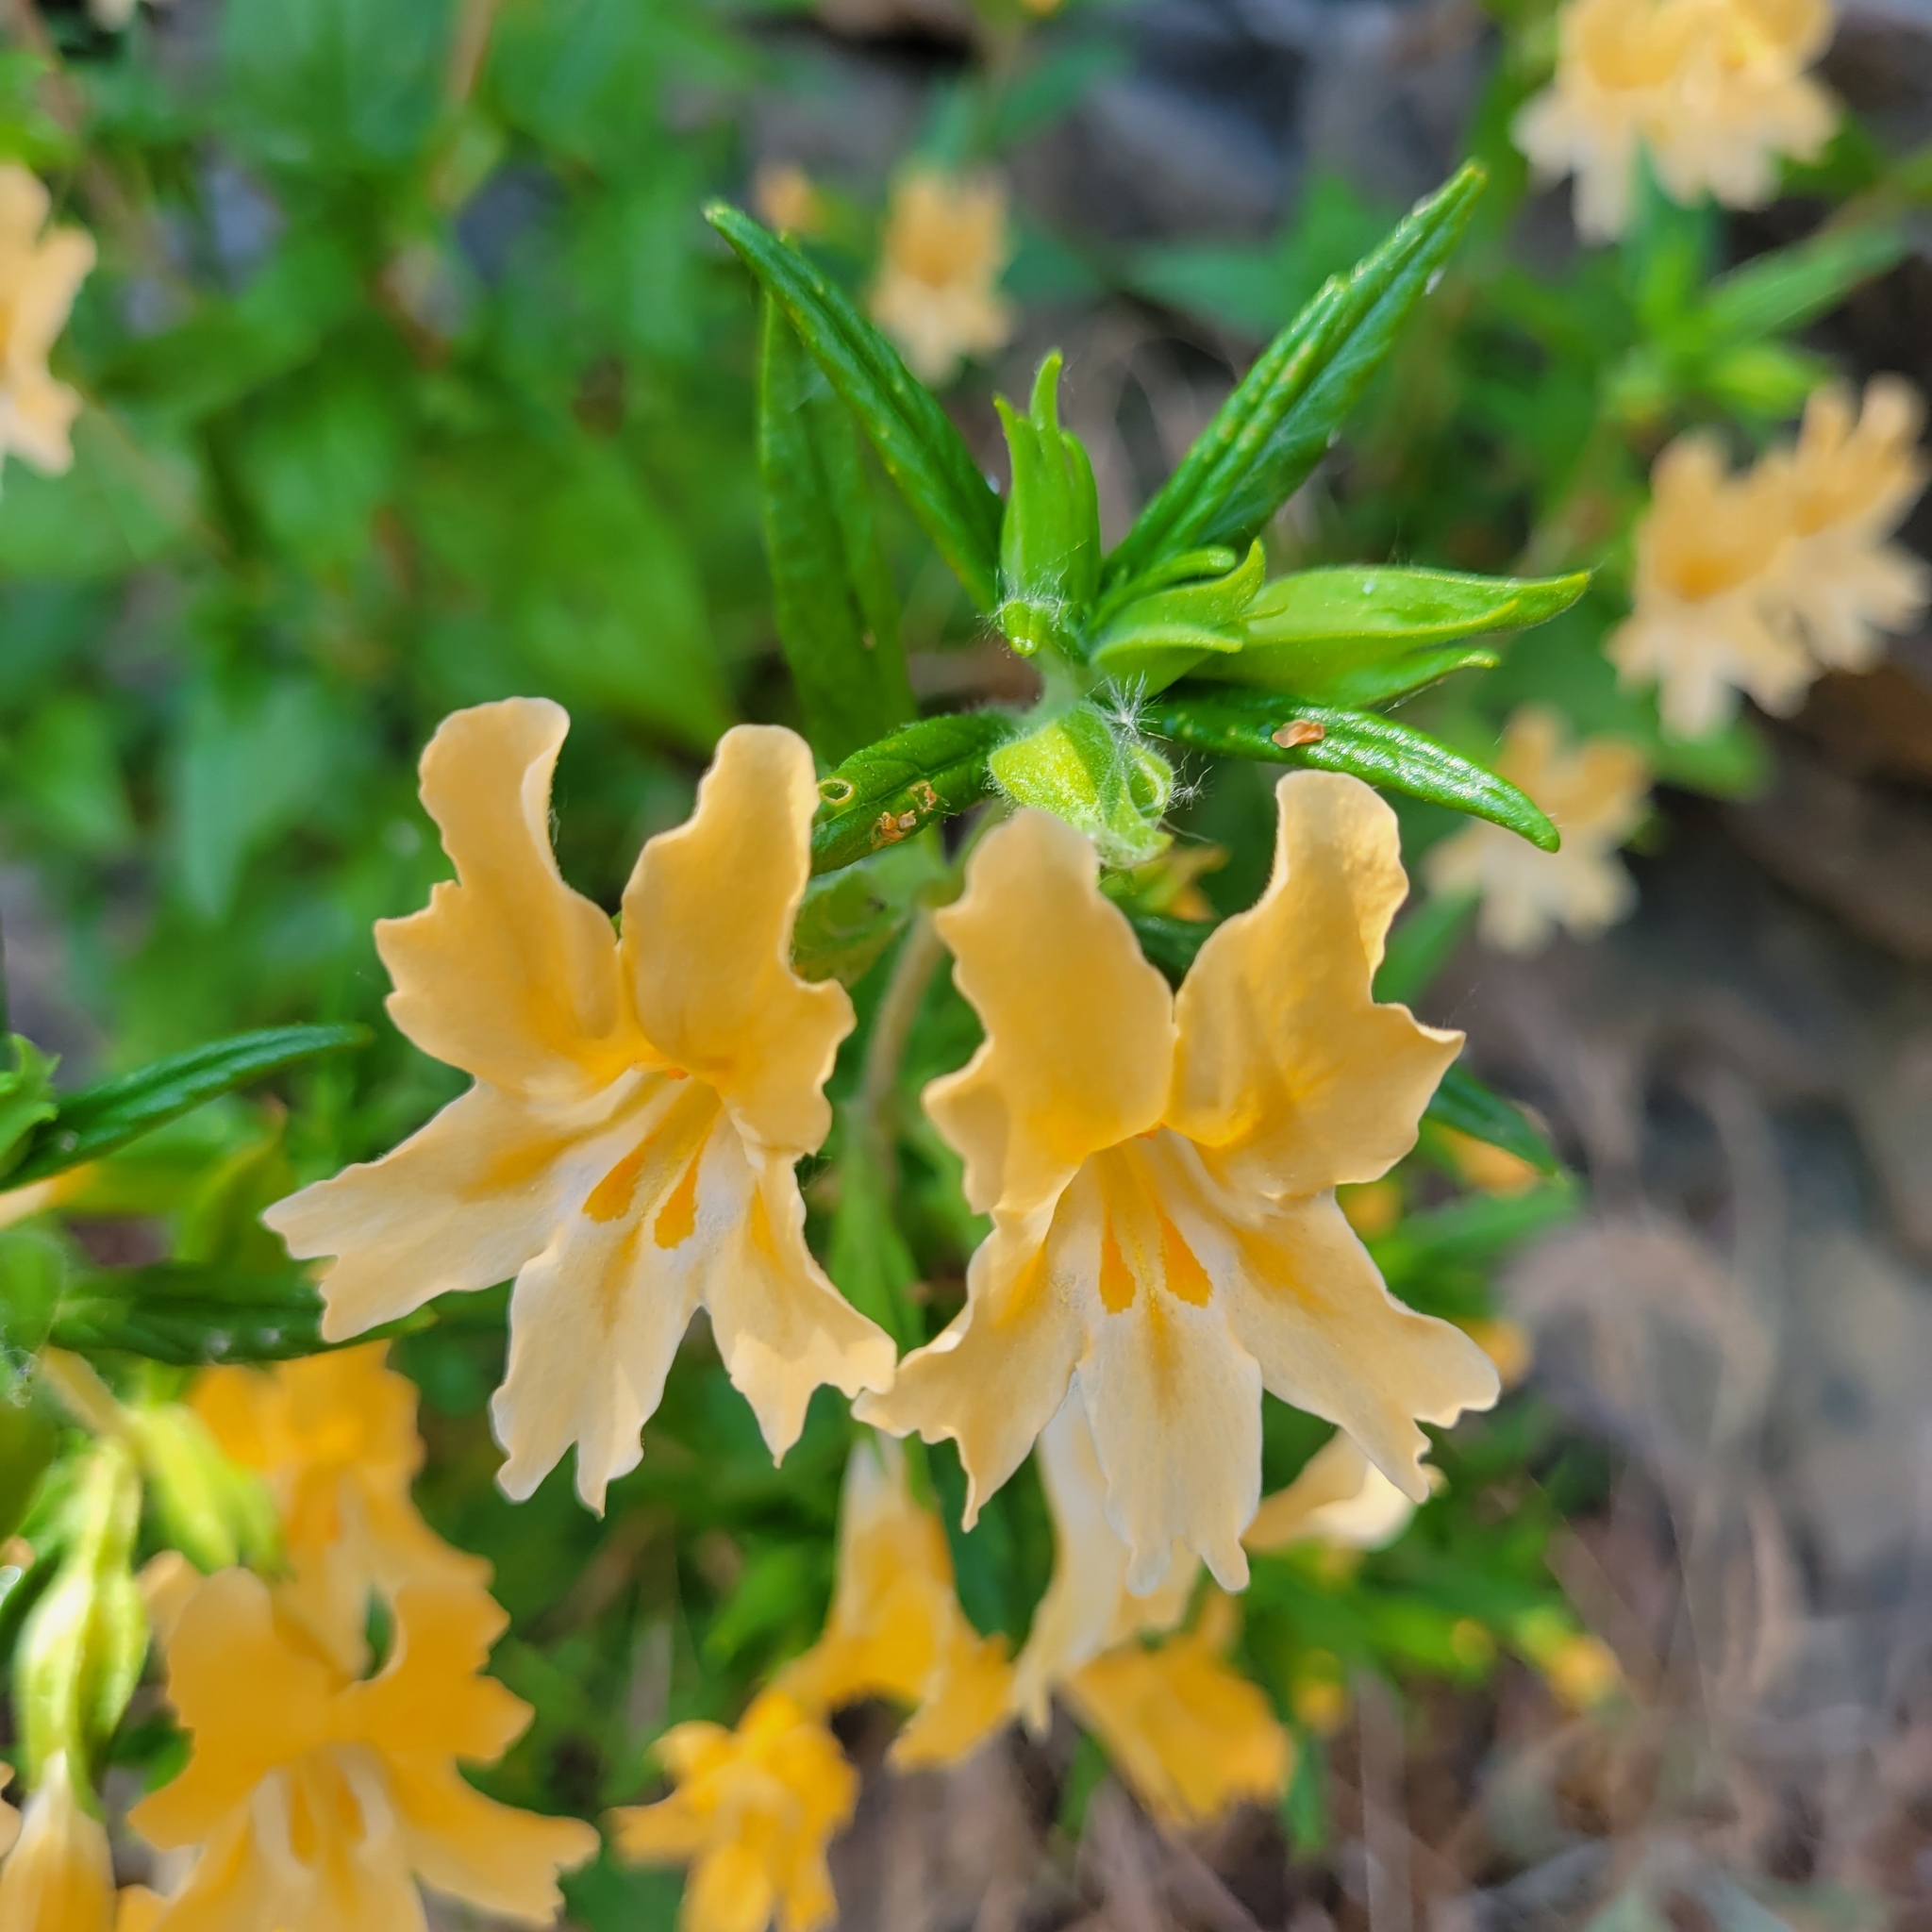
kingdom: Plantae
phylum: Tracheophyta
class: Magnoliopsida
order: Lamiales
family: Phrymaceae
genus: Diplacus
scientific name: Diplacus longiflorus
